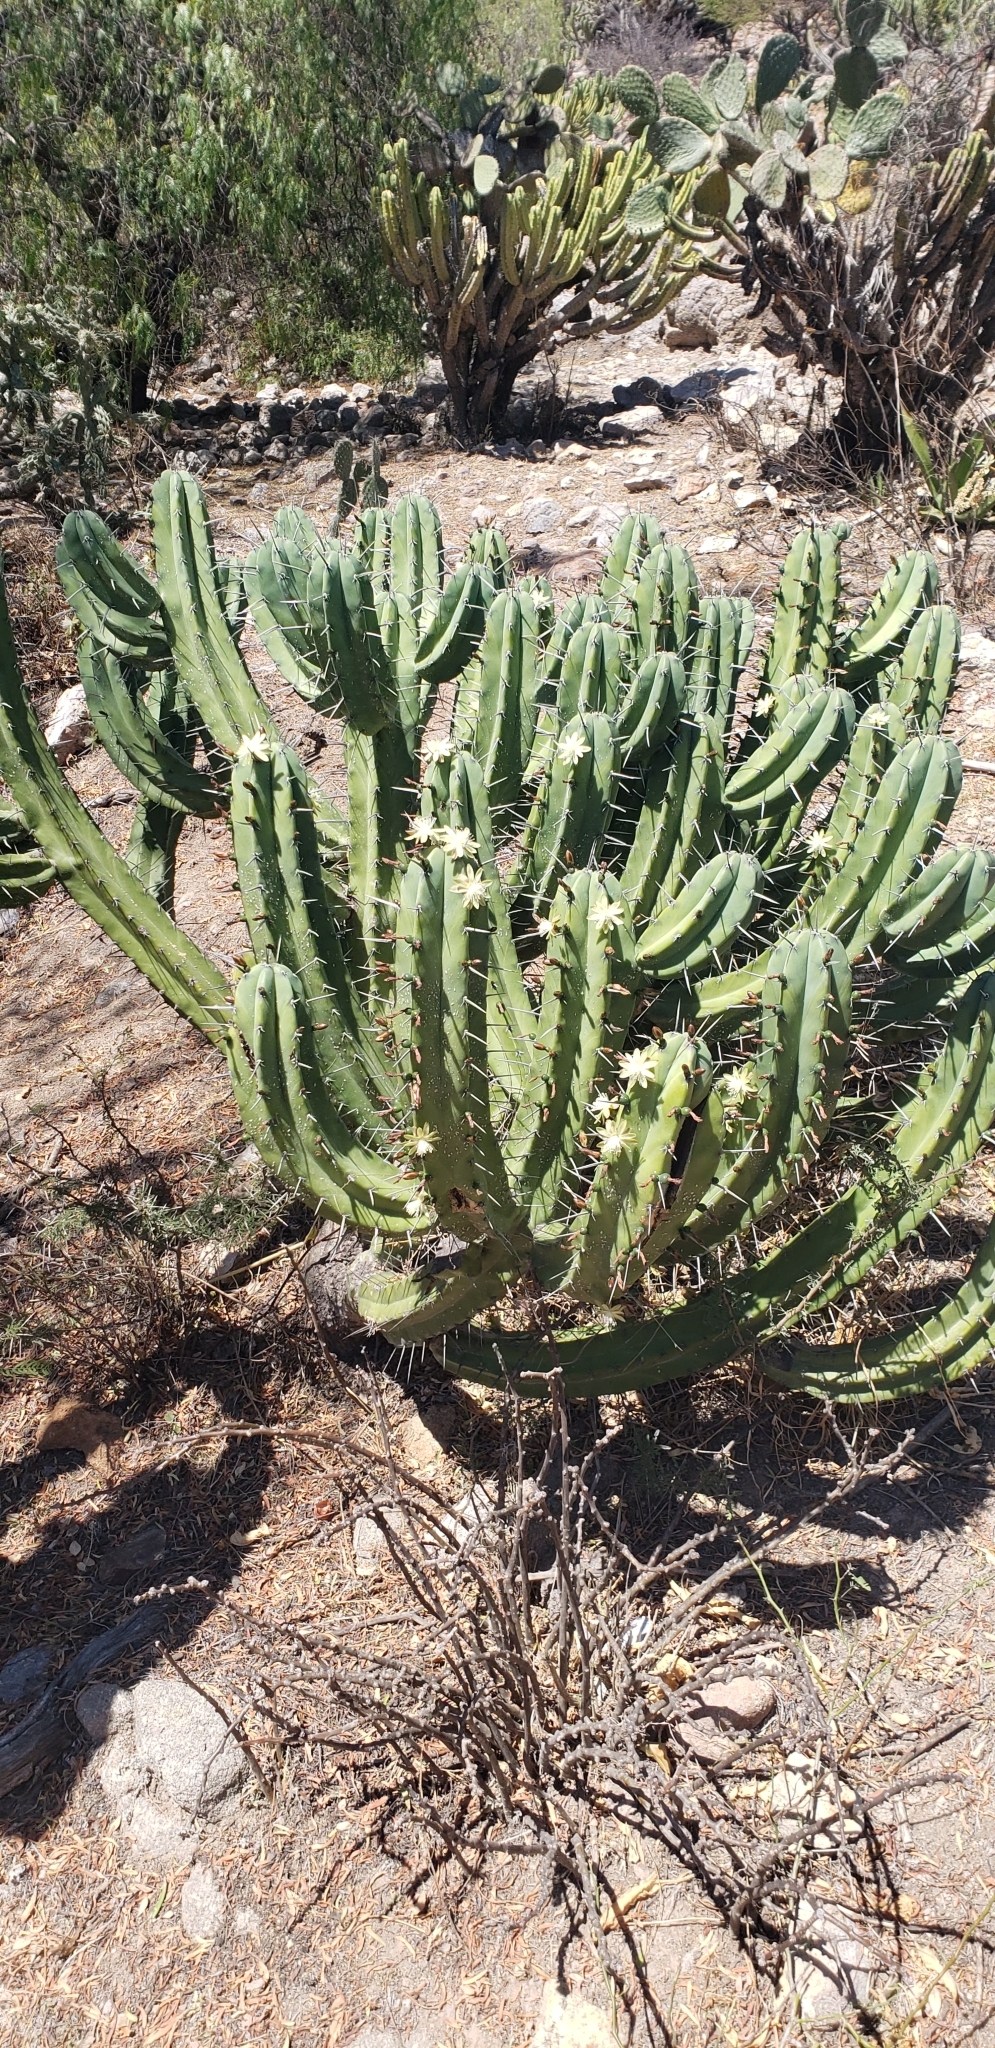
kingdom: Plantae
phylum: Tracheophyta
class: Magnoliopsida
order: Caryophyllales
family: Cactaceae
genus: Myrtillocactus
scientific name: Myrtillocactus geometrizans
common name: Bilberry cactus
